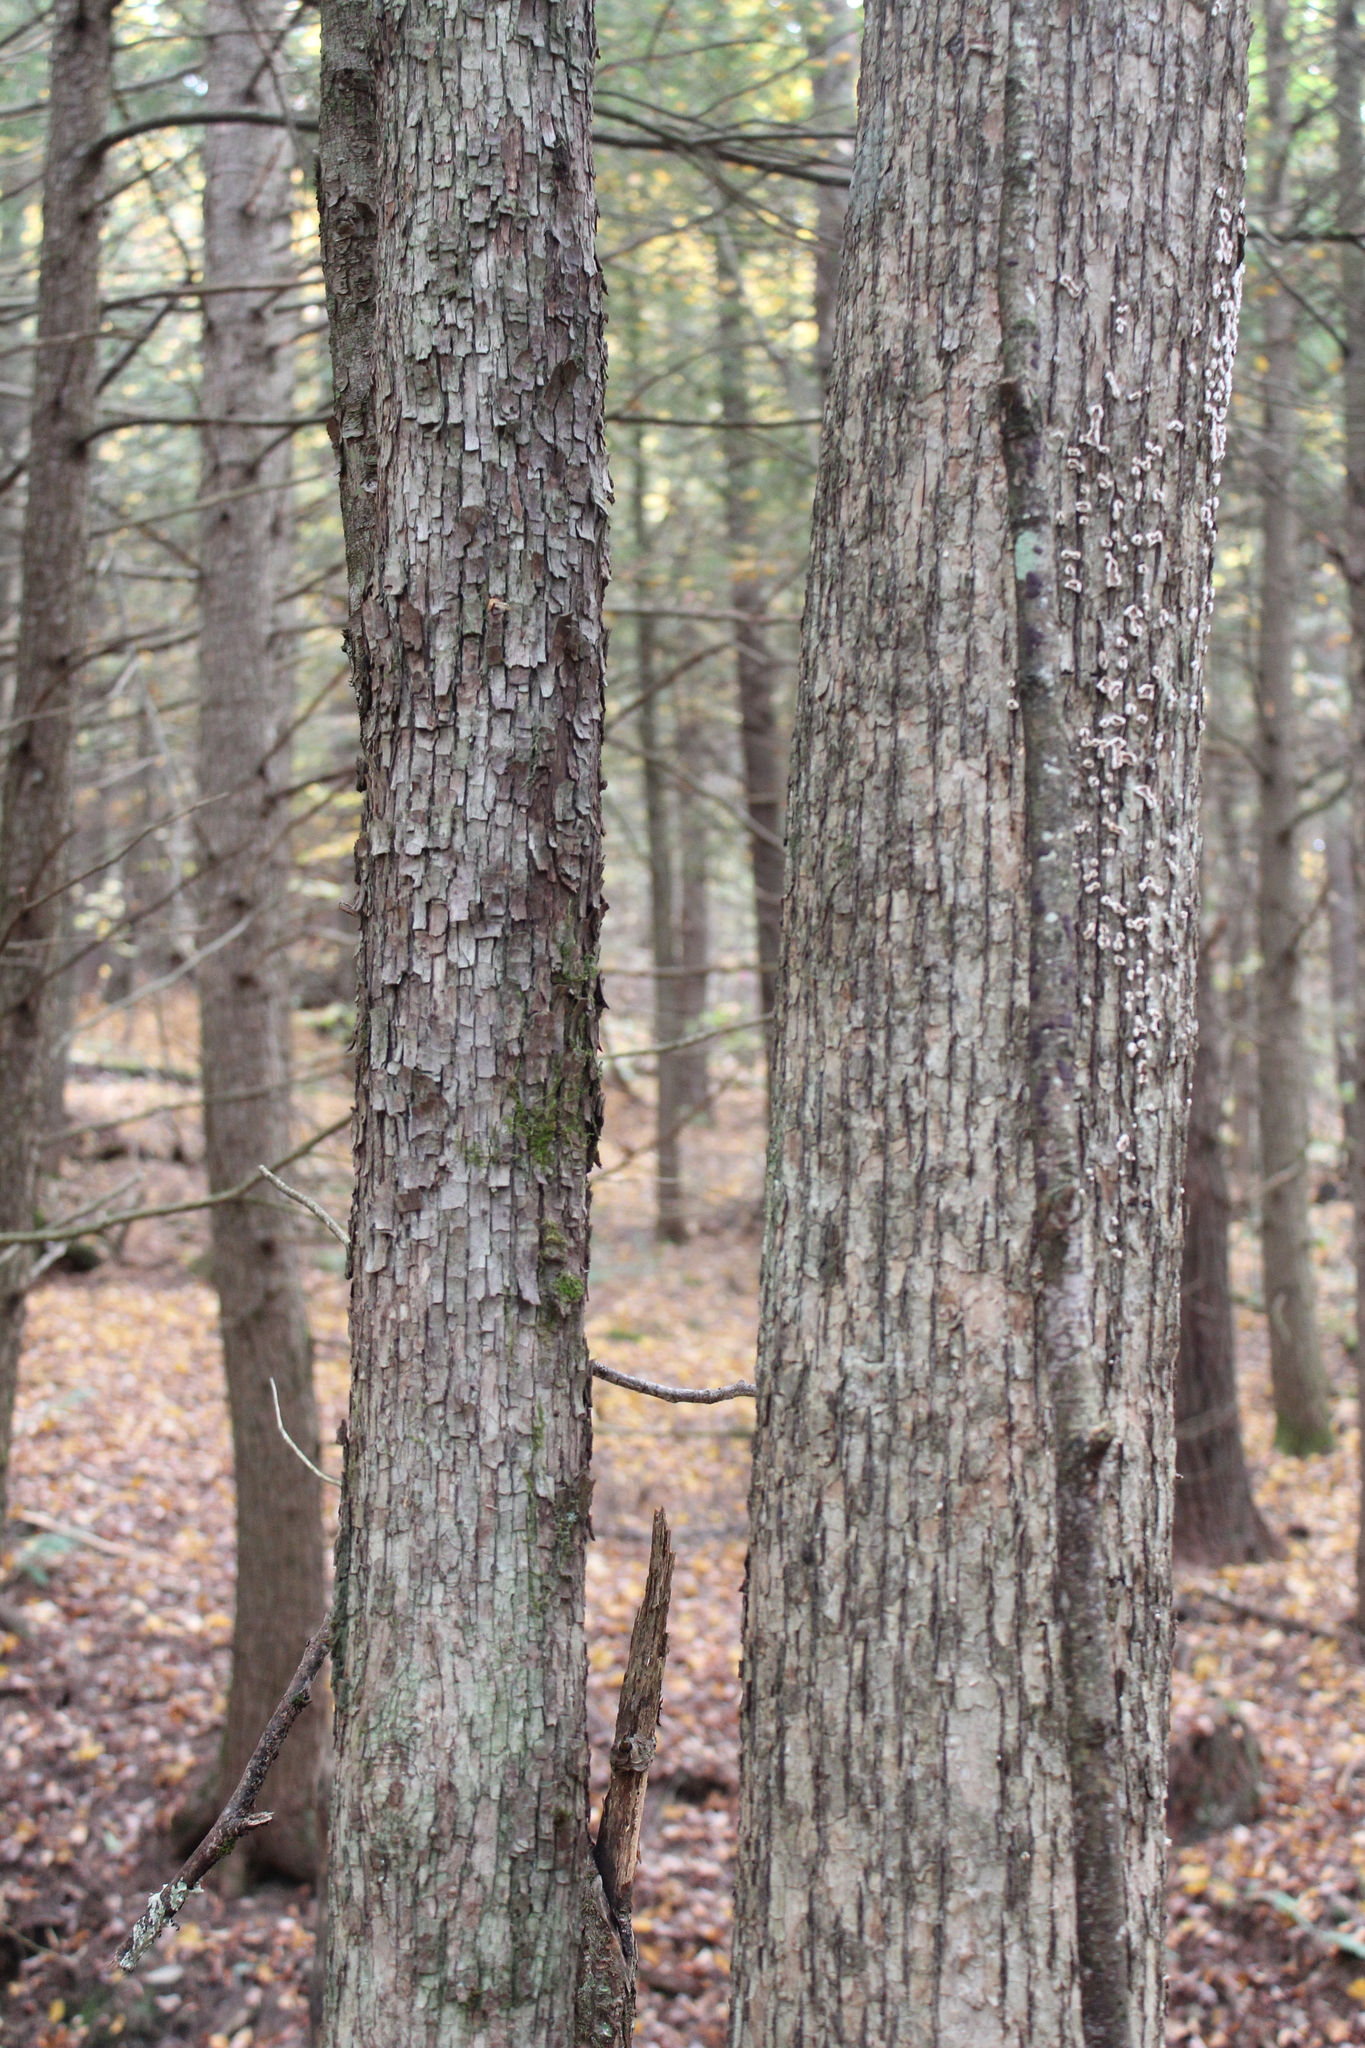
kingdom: Plantae
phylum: Tracheophyta
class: Magnoliopsida
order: Fagales
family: Betulaceae
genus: Ostrya
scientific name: Ostrya virginiana
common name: Ironwood
